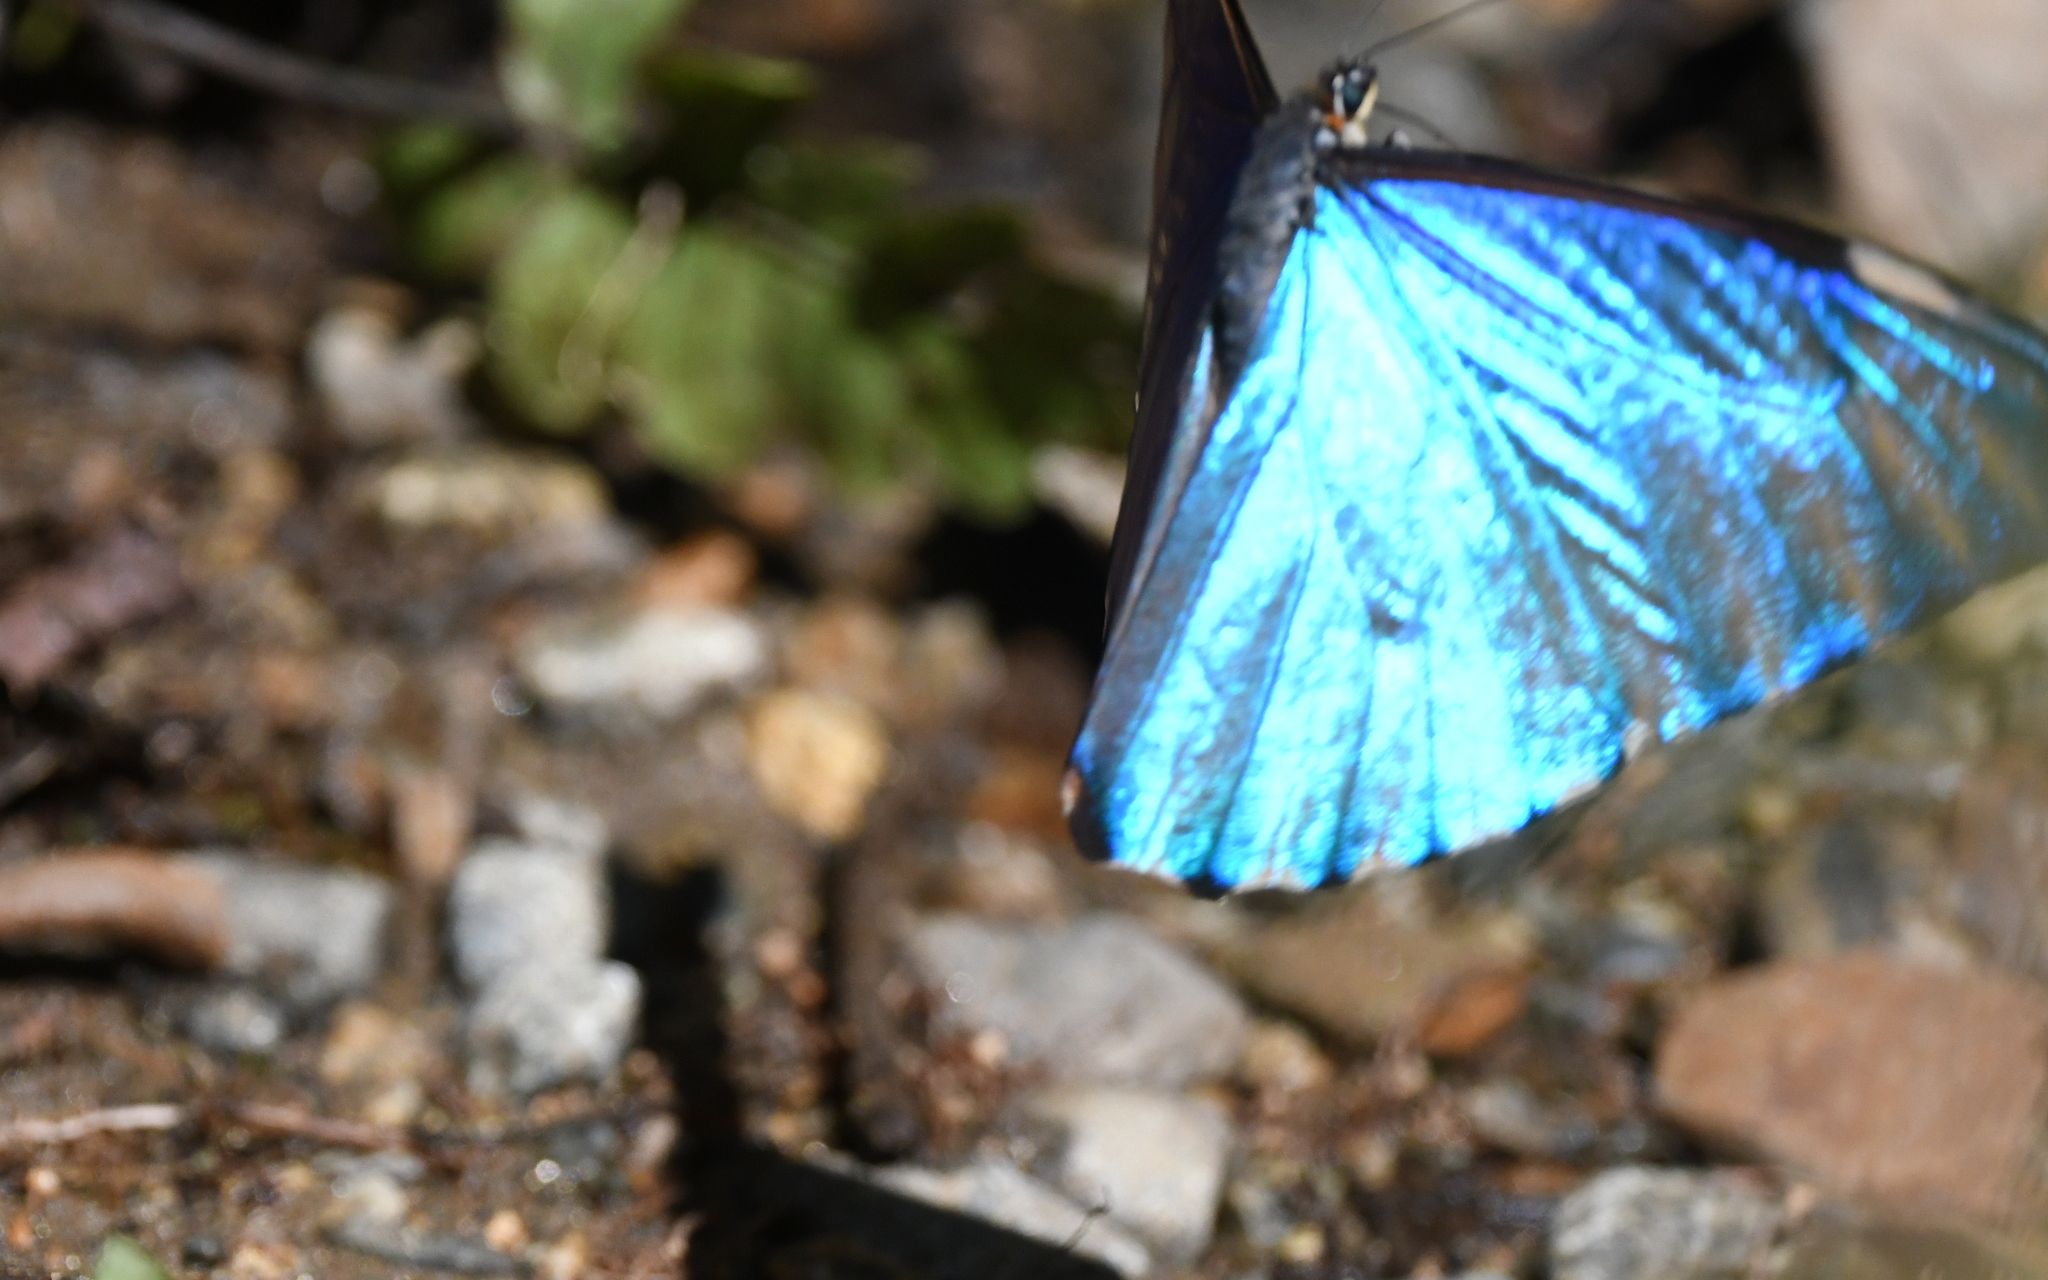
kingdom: Animalia
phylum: Arthropoda
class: Insecta
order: Lepidoptera
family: Nymphalidae
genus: Morpho
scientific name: Morpho aurora
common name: Aurora morpho
